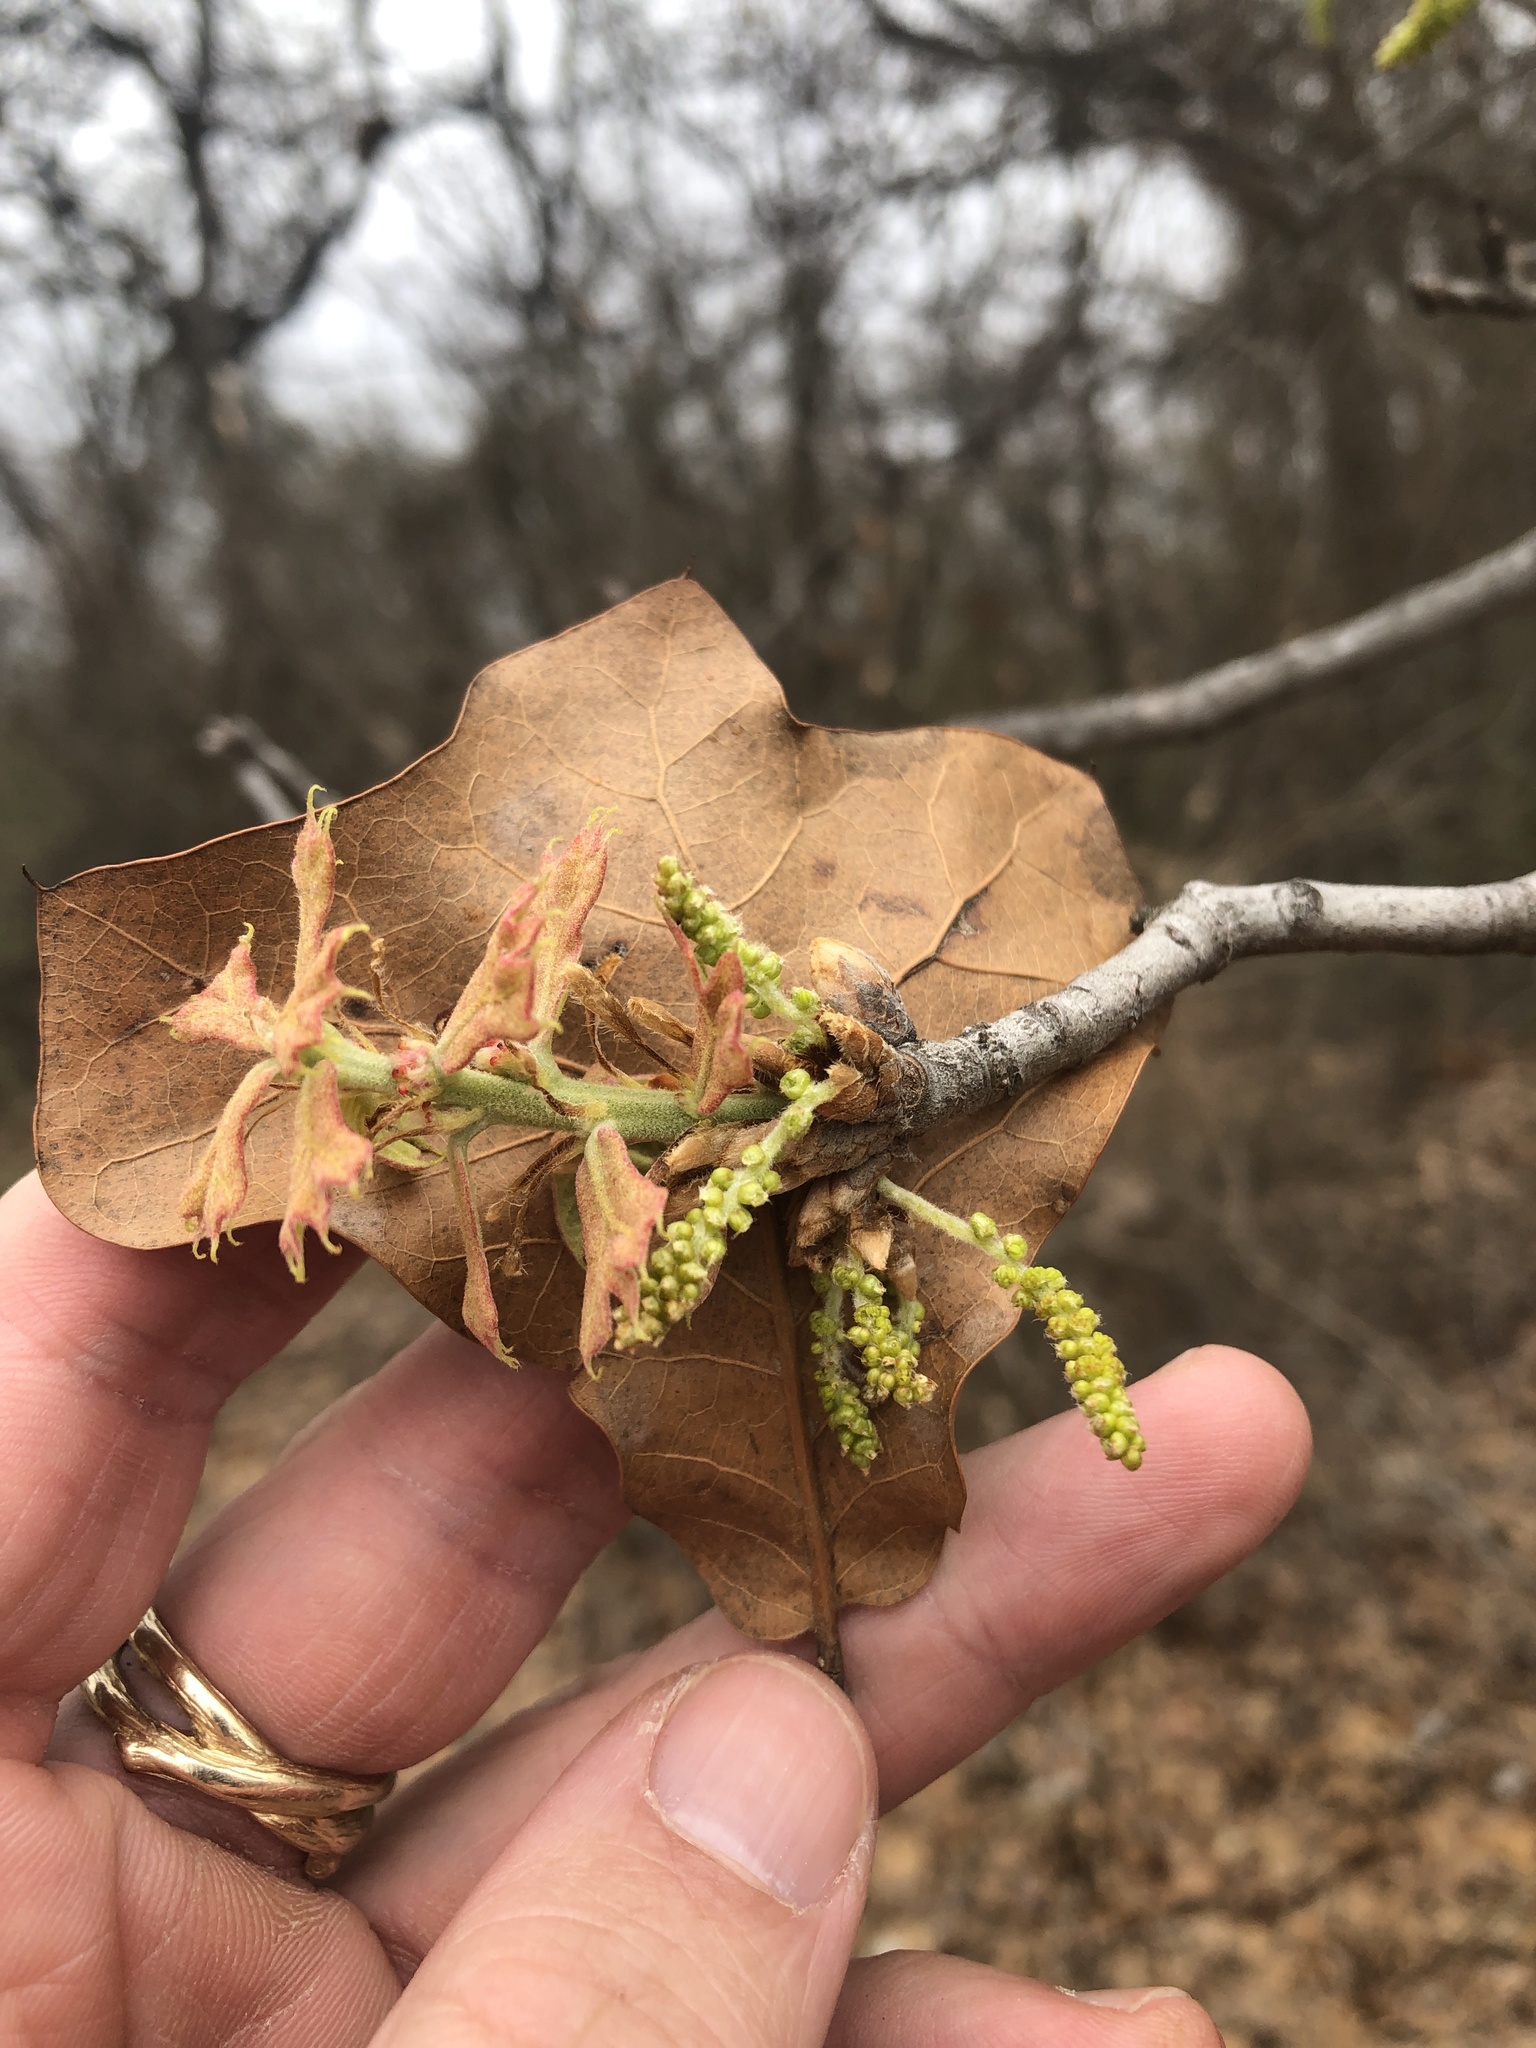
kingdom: Plantae
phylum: Tracheophyta
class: Magnoliopsida
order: Fagales
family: Fagaceae
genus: Quercus
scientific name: Quercus marilandica
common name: Blackjack oak
